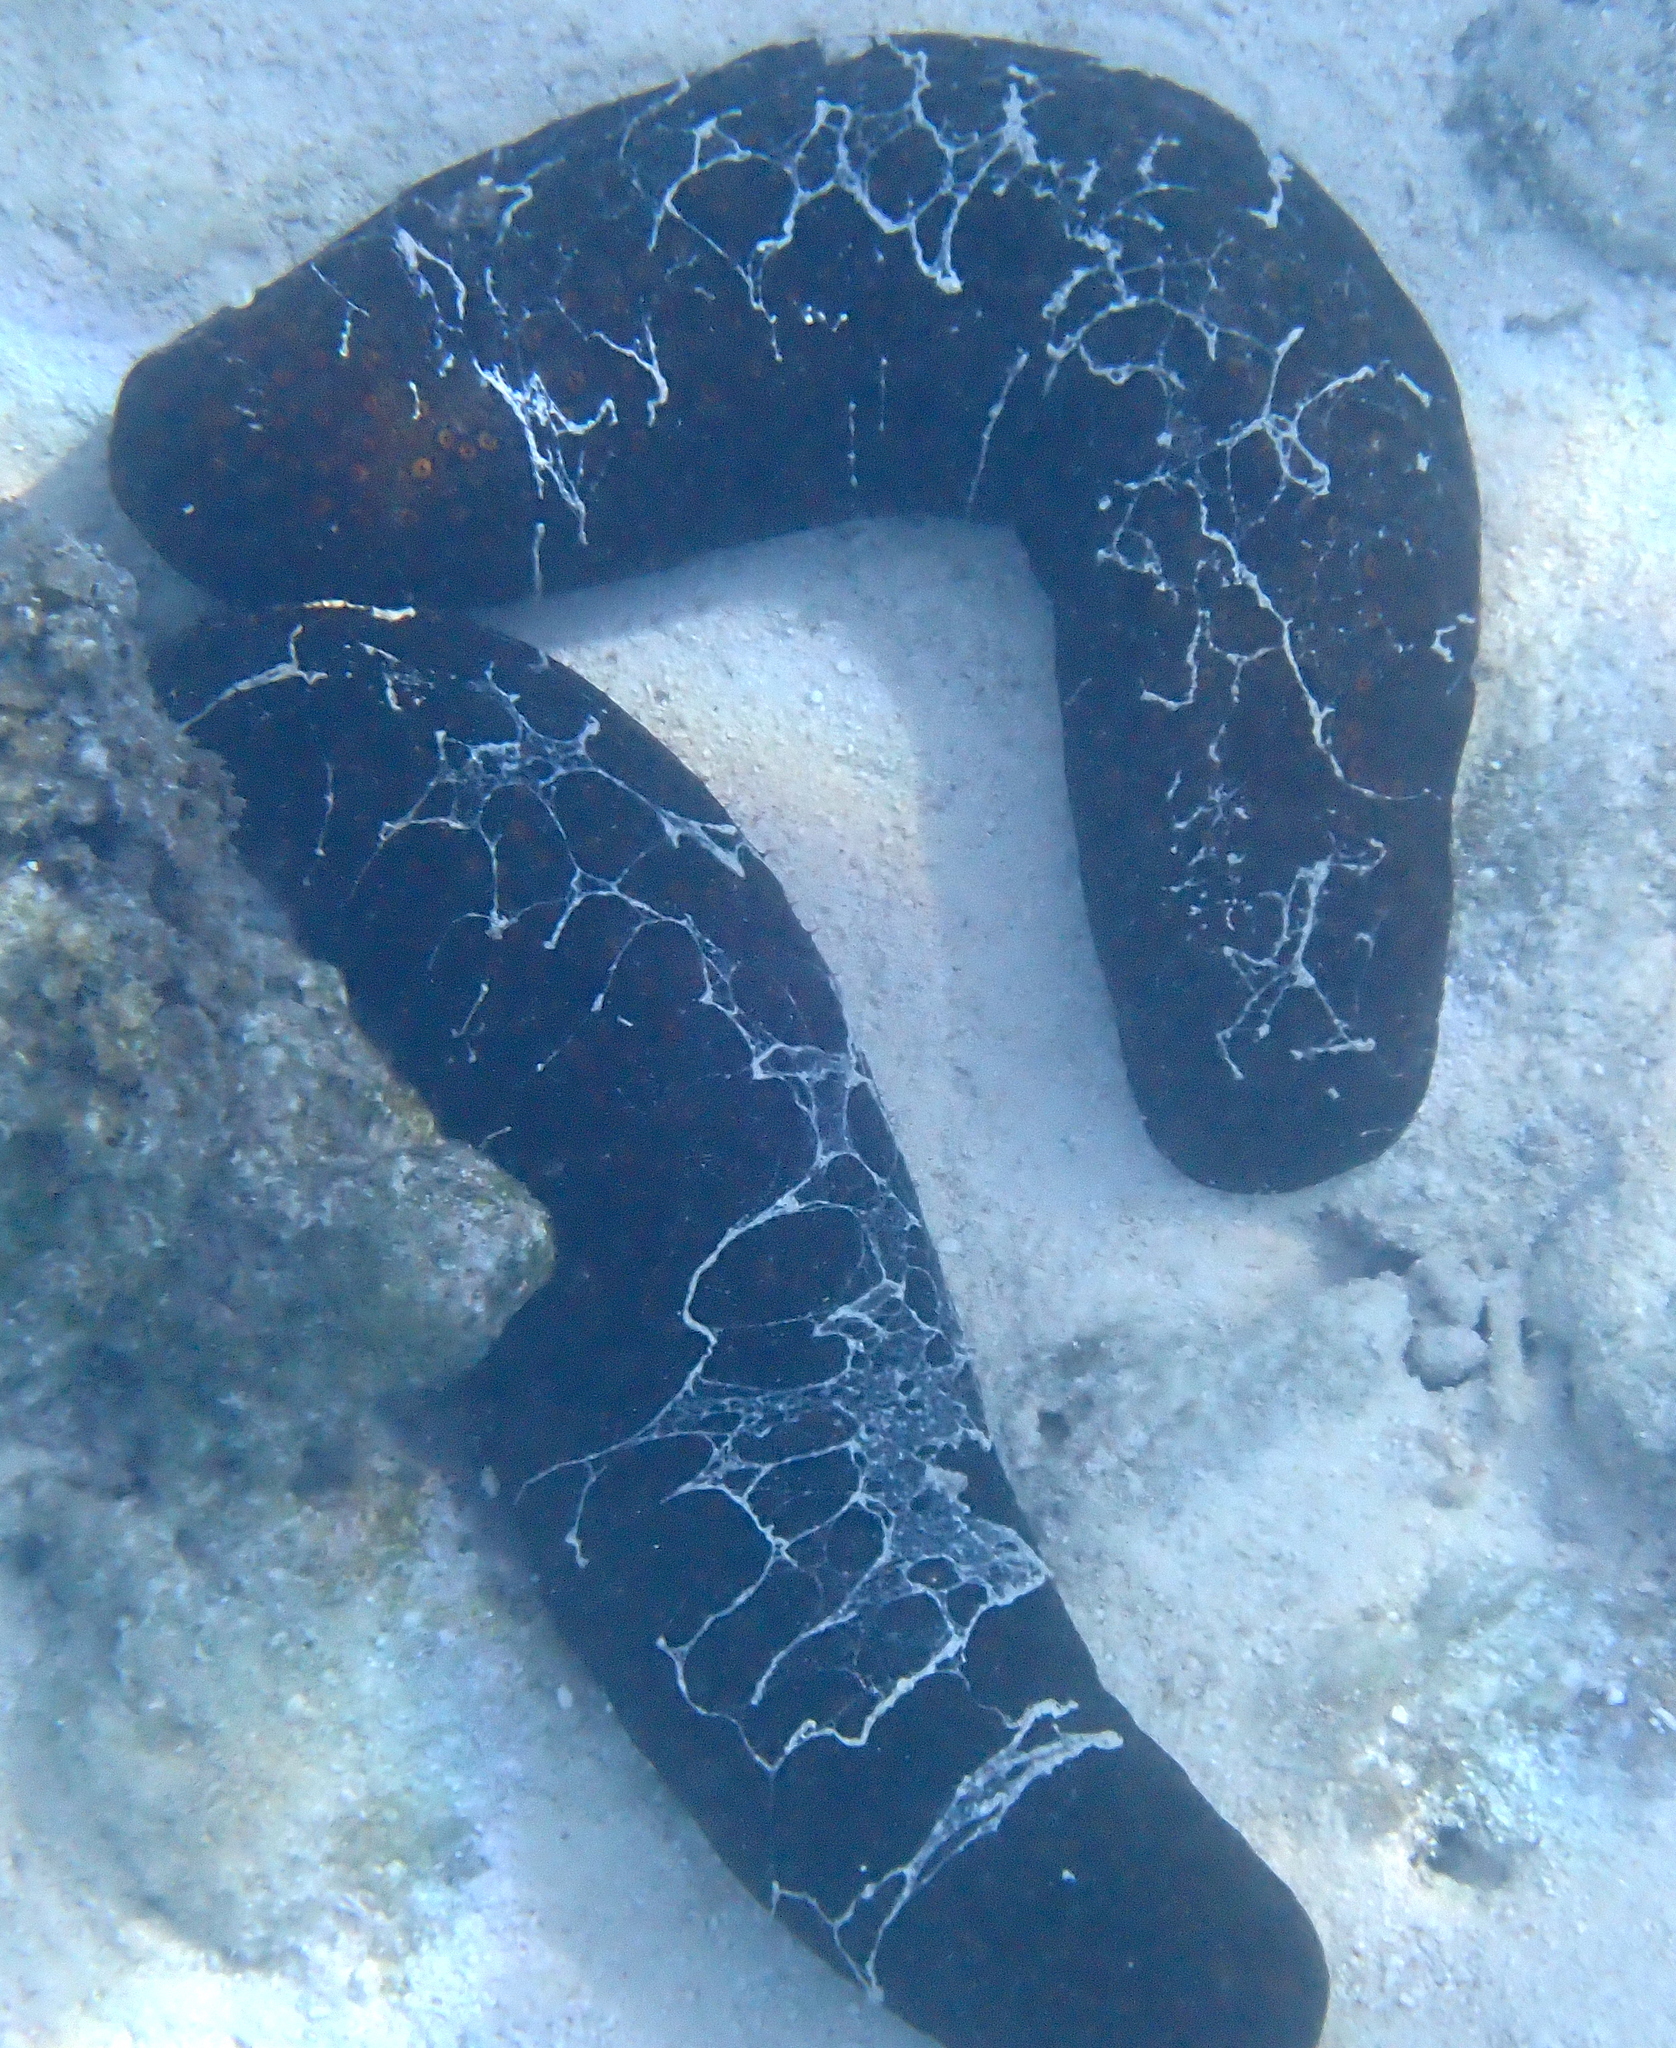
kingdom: Animalia
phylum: Echinodermata
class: Holothuroidea
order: Holothuriida
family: Holothuriidae
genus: Bohadschia
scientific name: Bohadschia argus
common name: Leopardfish
